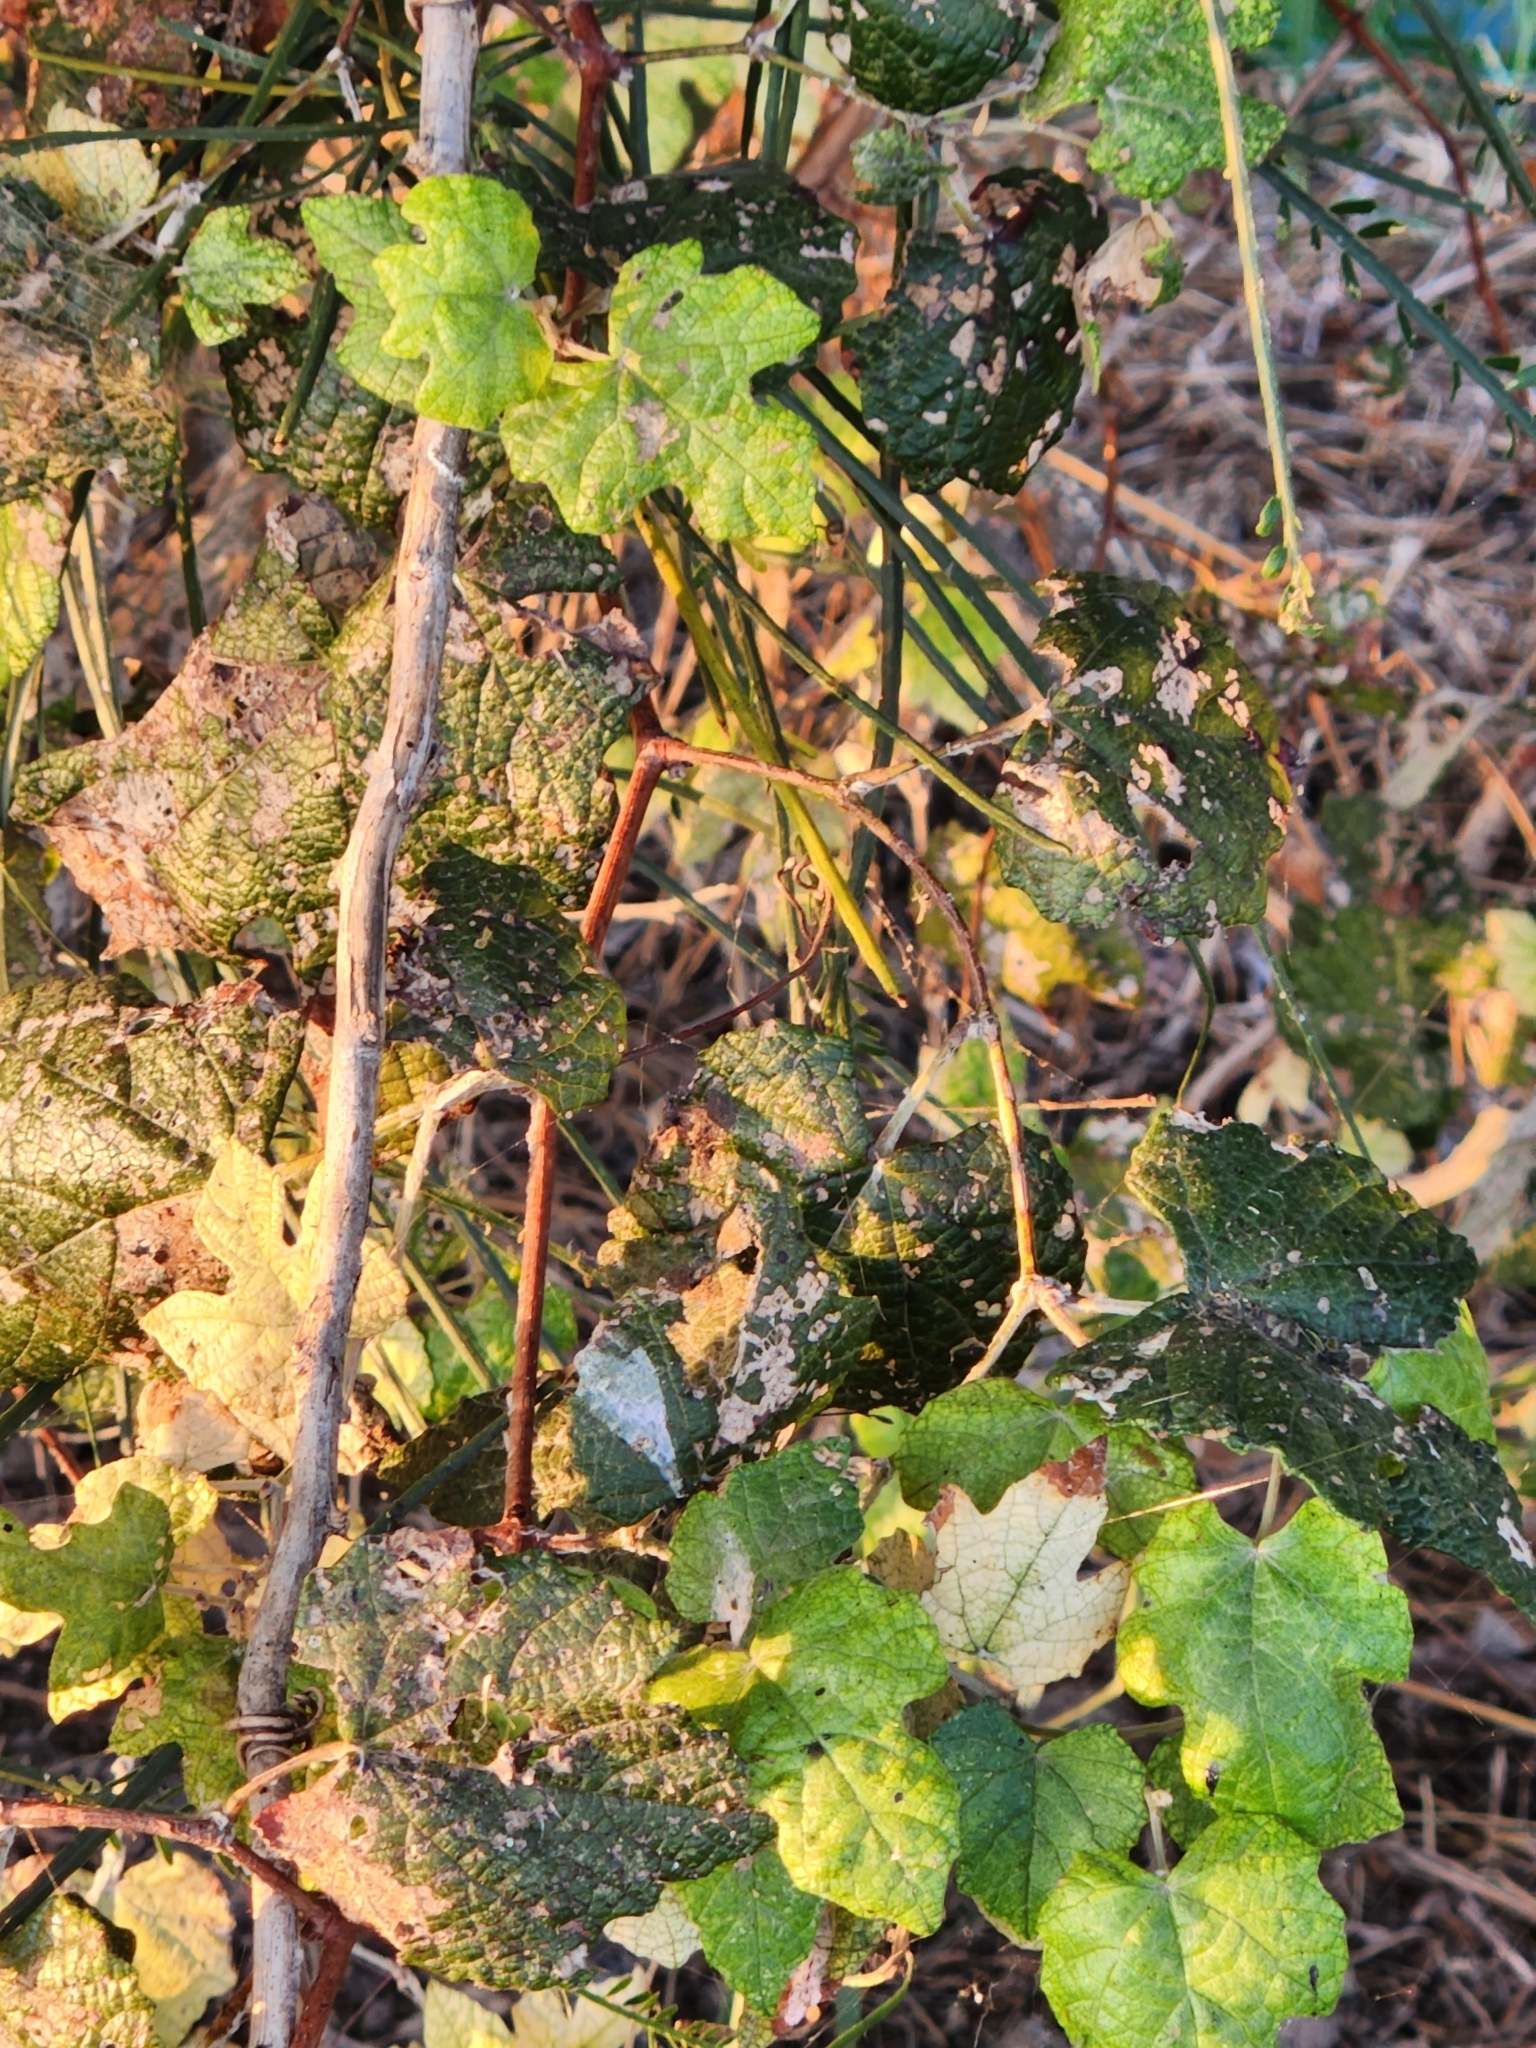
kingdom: Plantae
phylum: Tracheophyta
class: Magnoliopsida
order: Vitales
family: Vitaceae
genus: Vitis
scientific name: Vitis mustangensis
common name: Mustang grape
